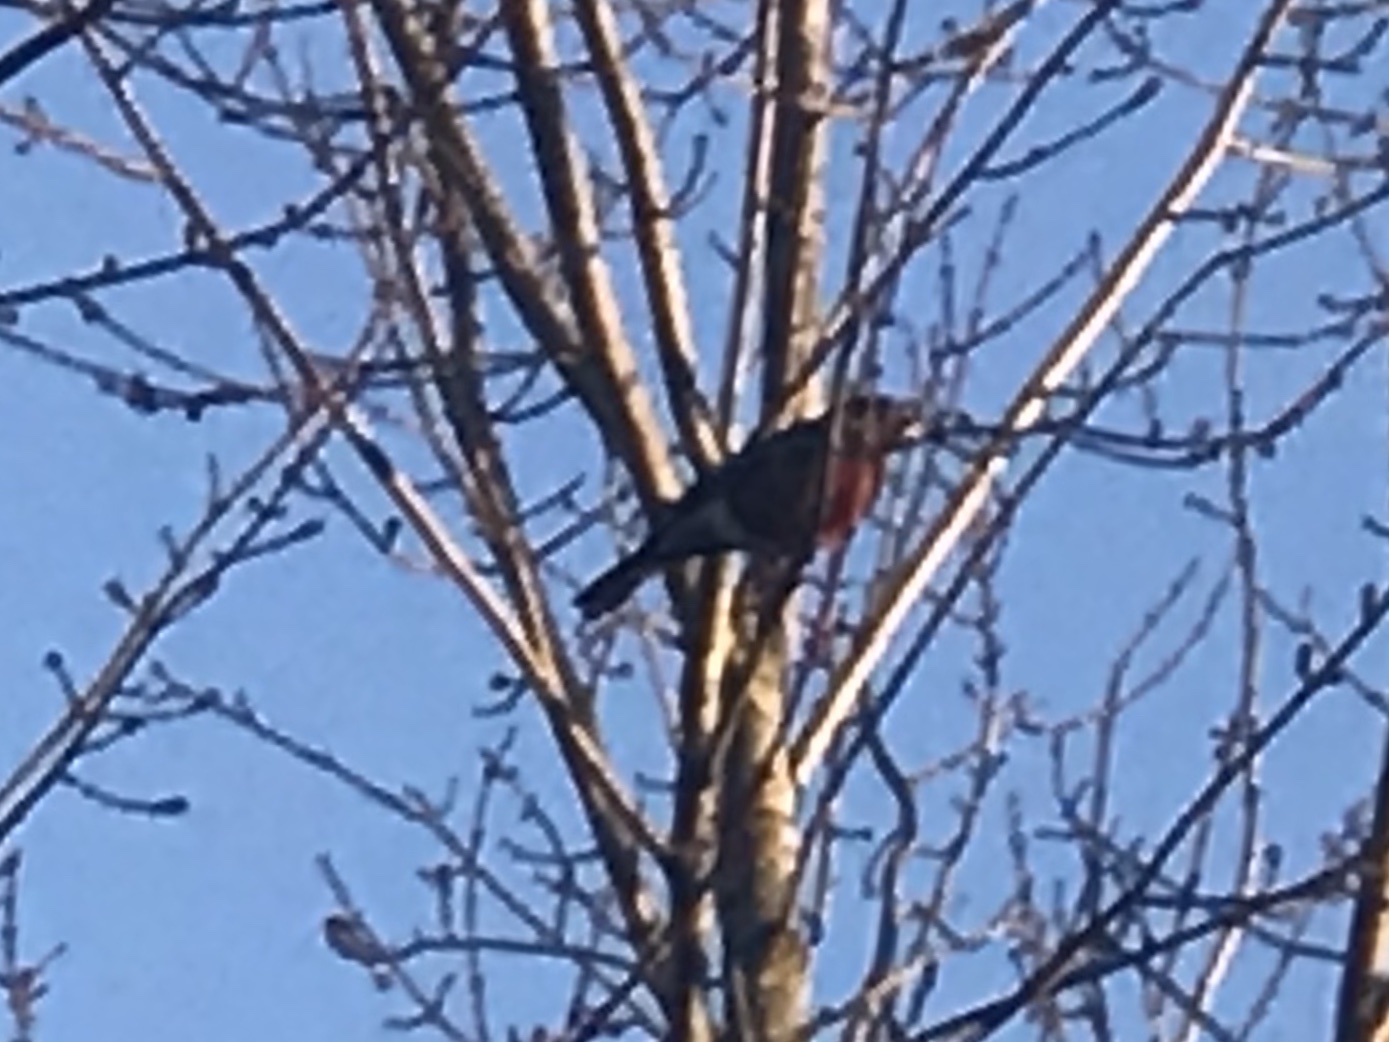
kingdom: Animalia
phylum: Chordata
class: Aves
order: Passeriformes
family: Turdidae
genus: Turdus
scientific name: Turdus migratorius
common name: American robin
